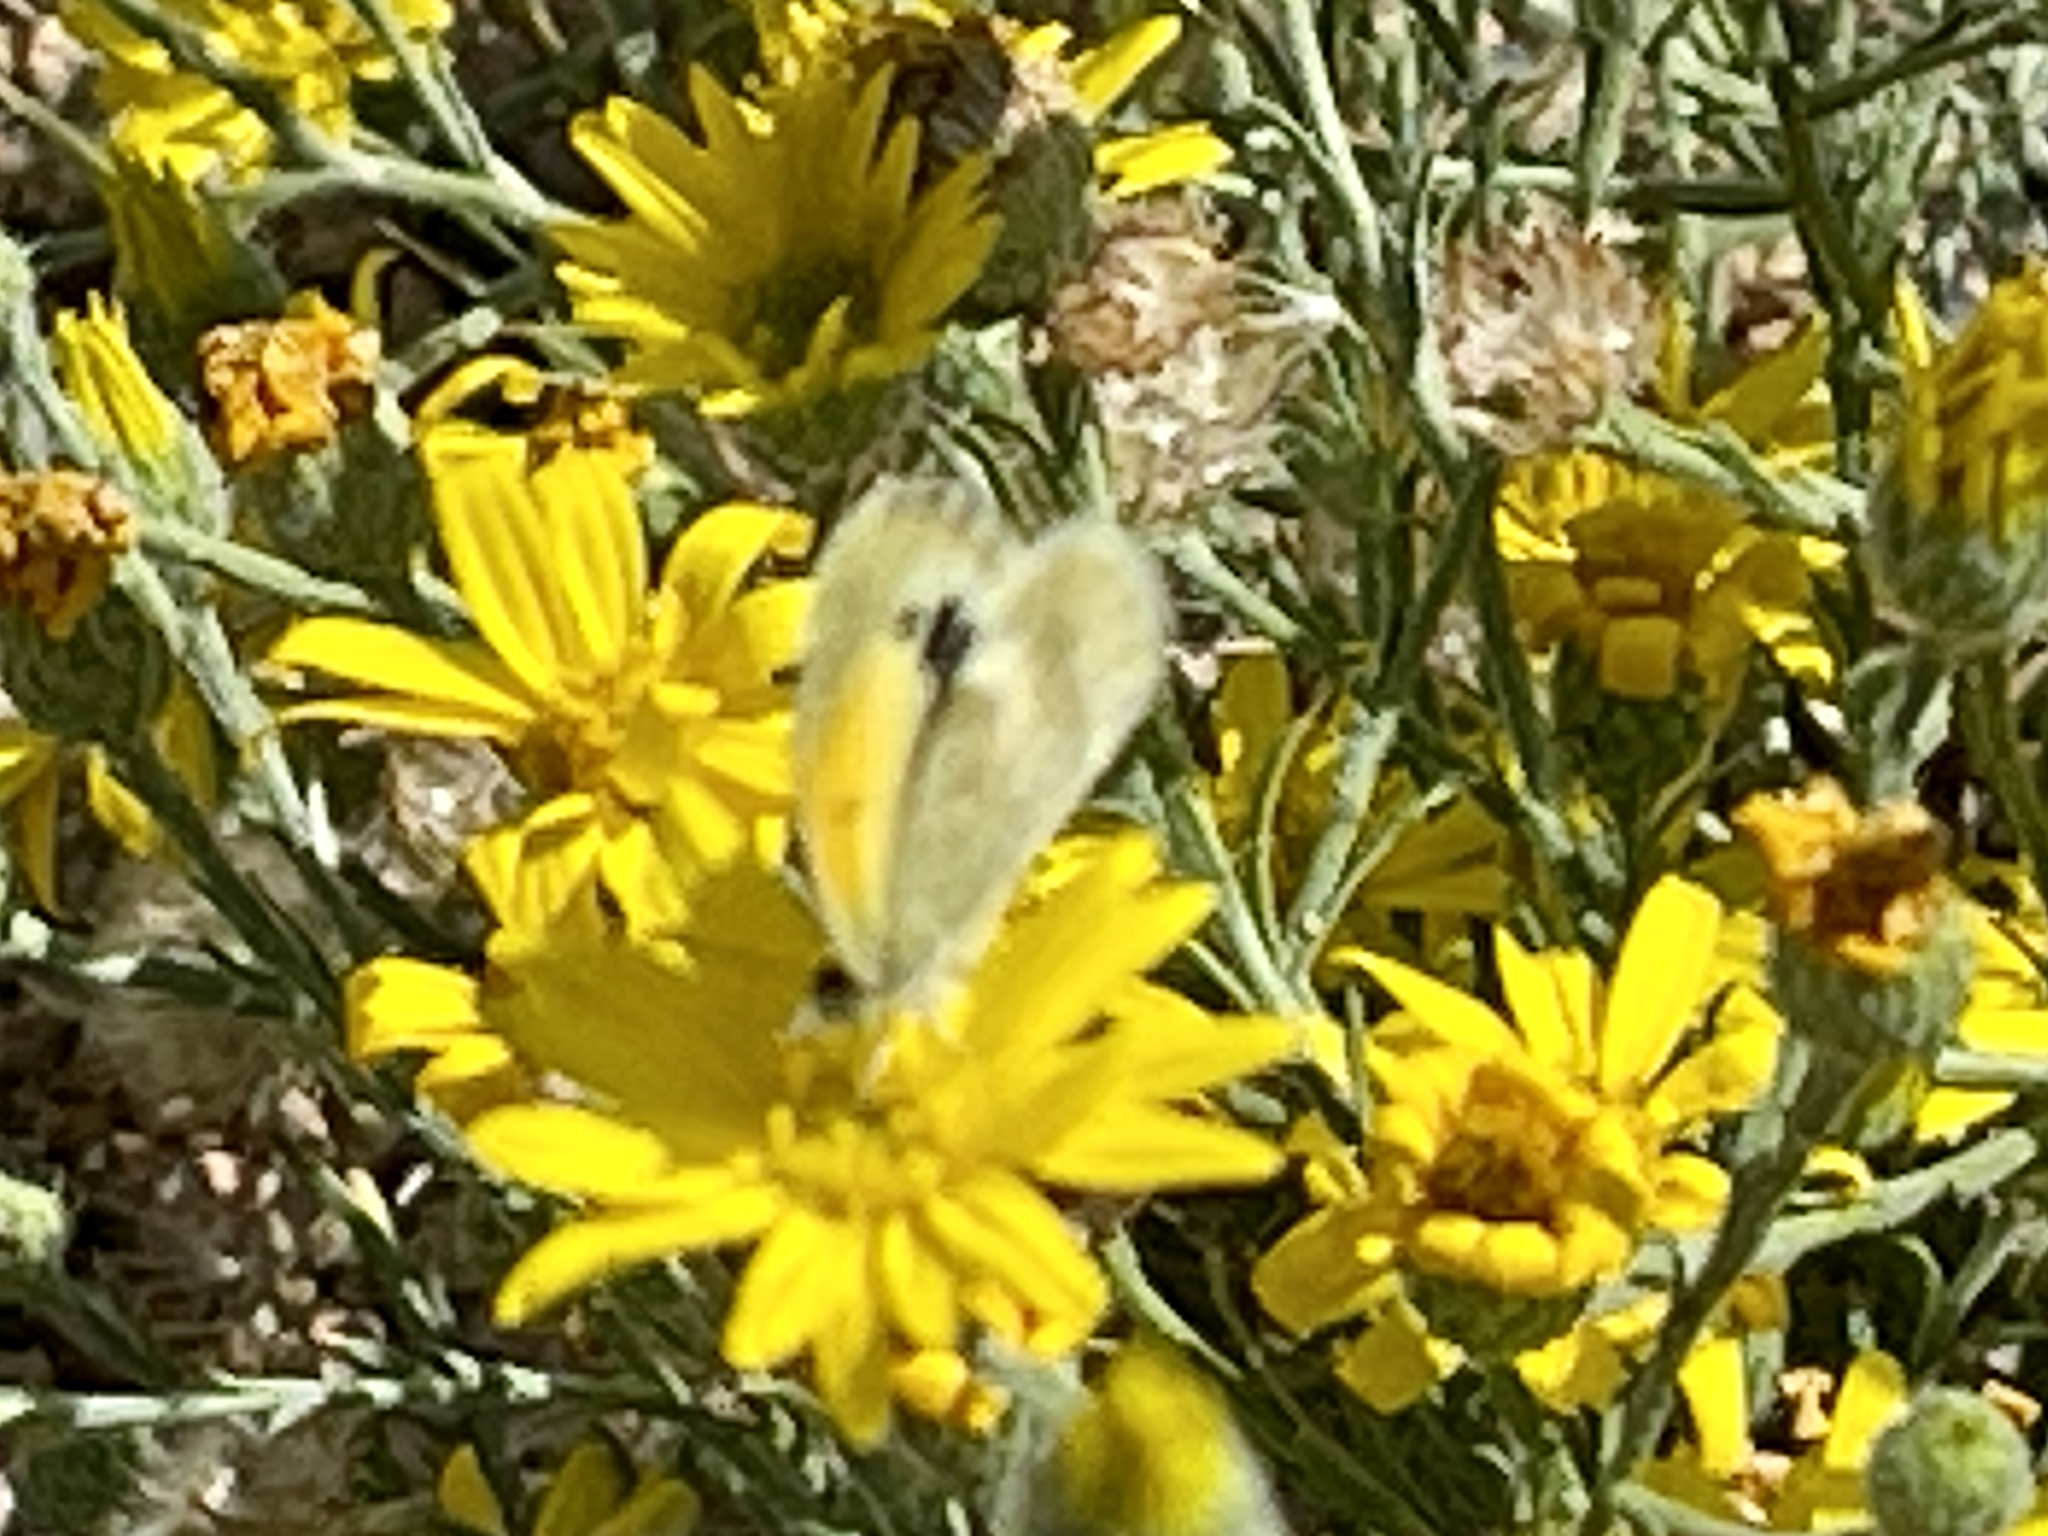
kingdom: Animalia
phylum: Arthropoda
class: Insecta
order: Lepidoptera
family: Pieridae
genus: Nathalis
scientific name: Nathalis iole
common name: Dainty sulphur
